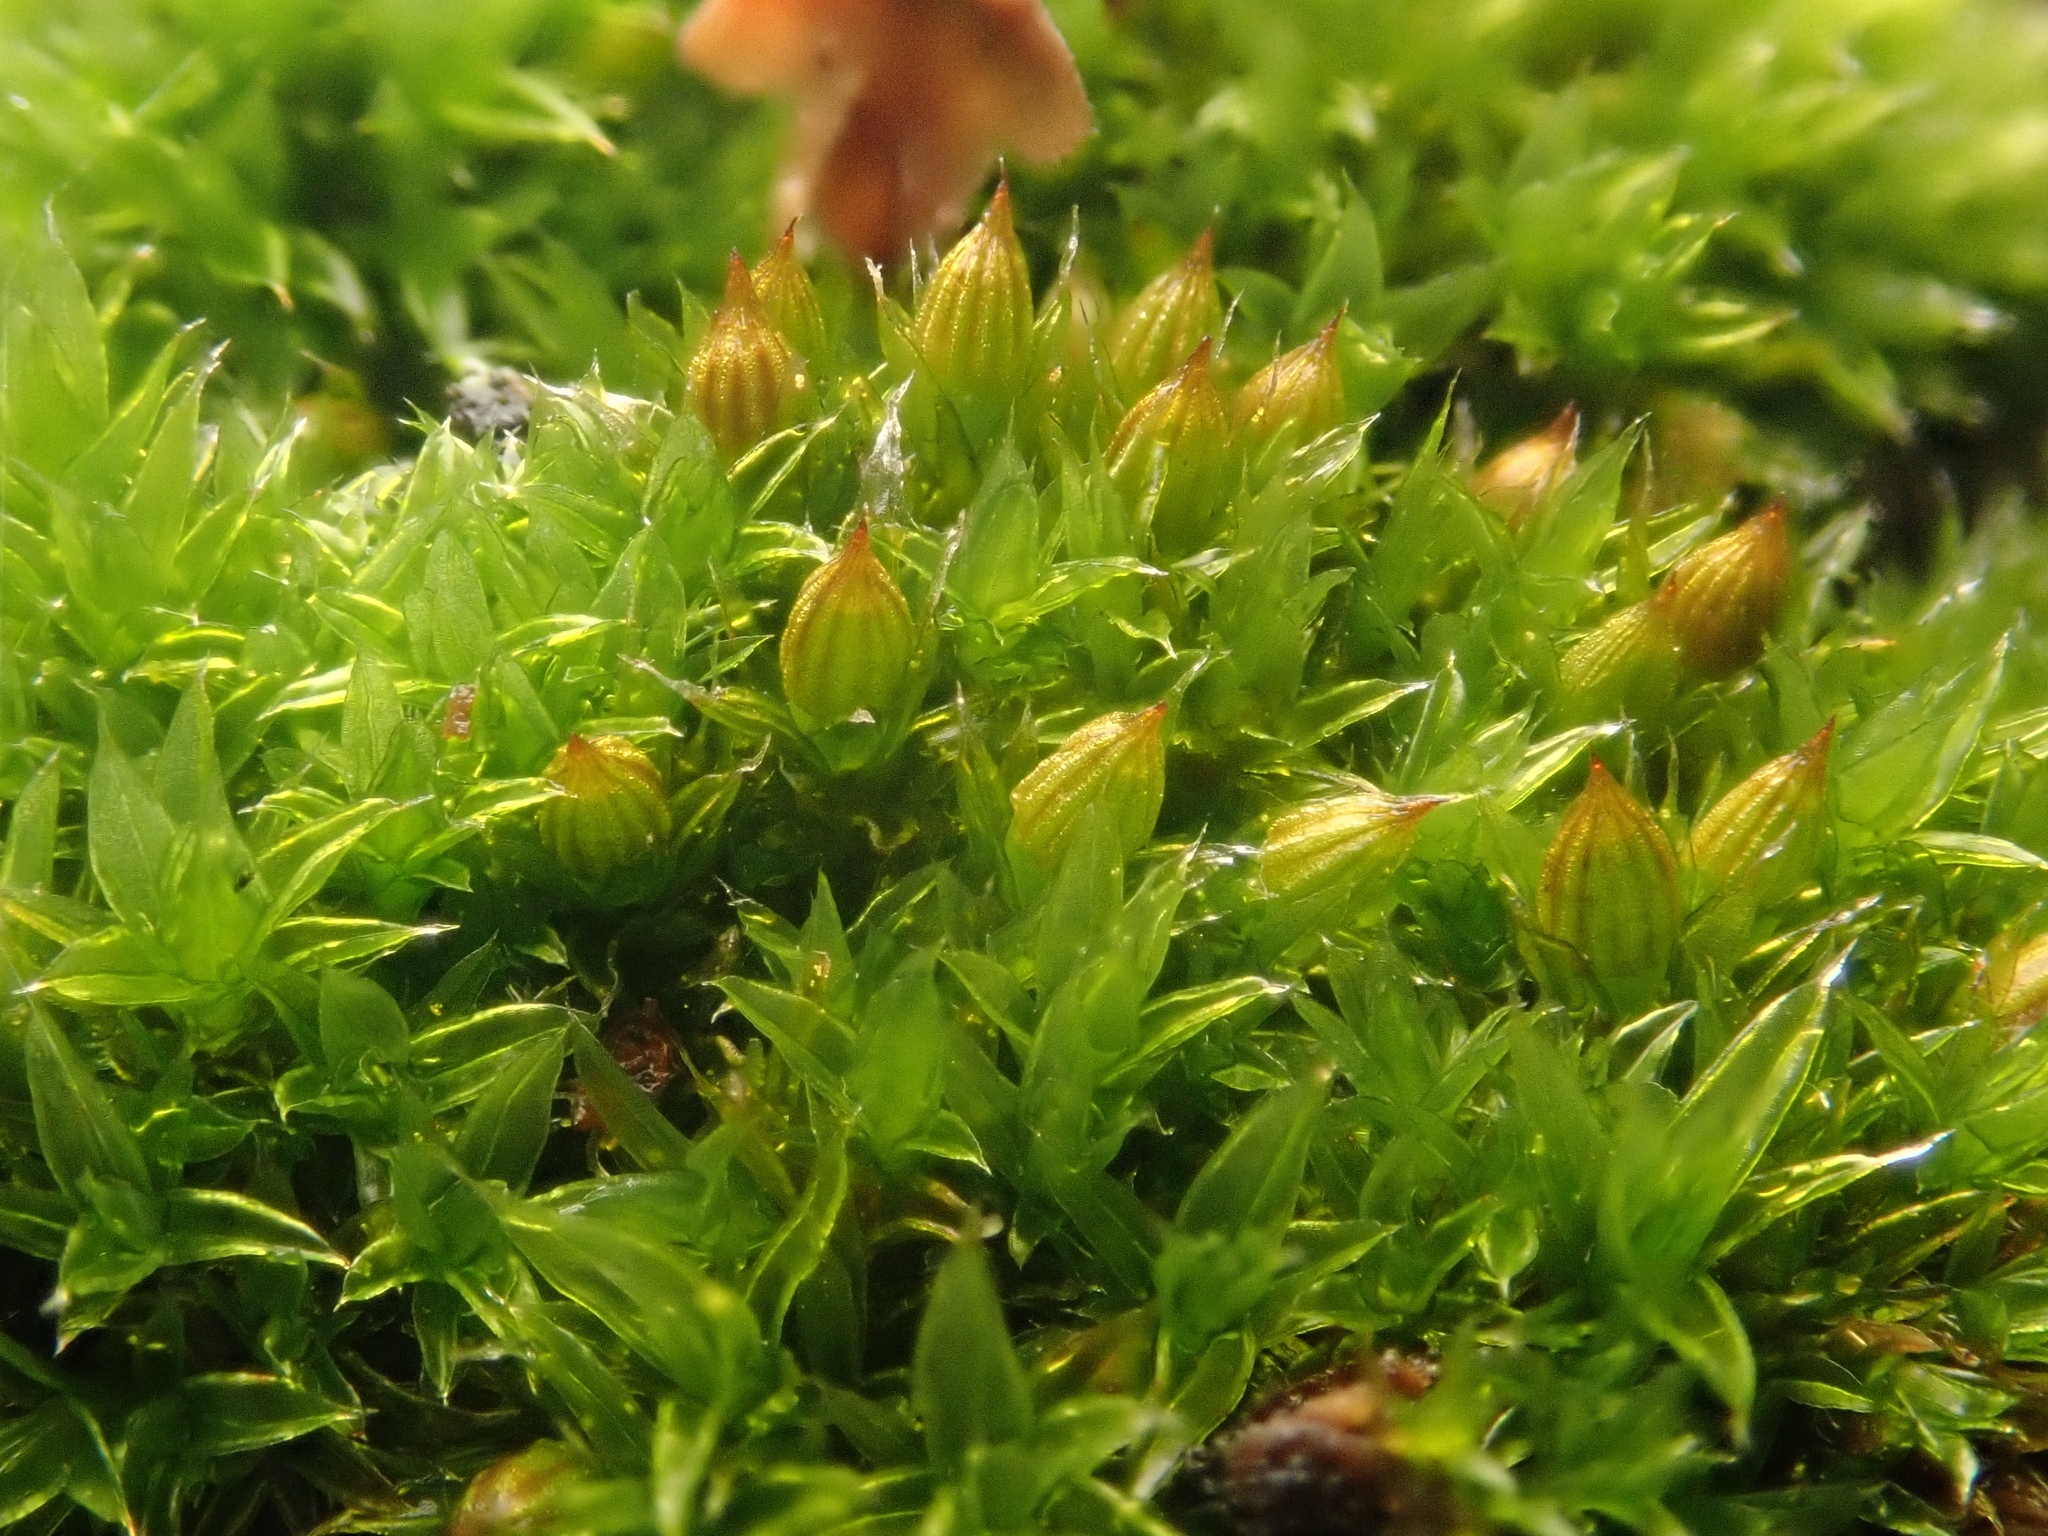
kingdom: Plantae
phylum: Bryophyta
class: Bryopsida
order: Orthotrichales
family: Orthotrichaceae
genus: Orthotrichum
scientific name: Orthotrichum diaphanum
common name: White-tipped bristle-moss
